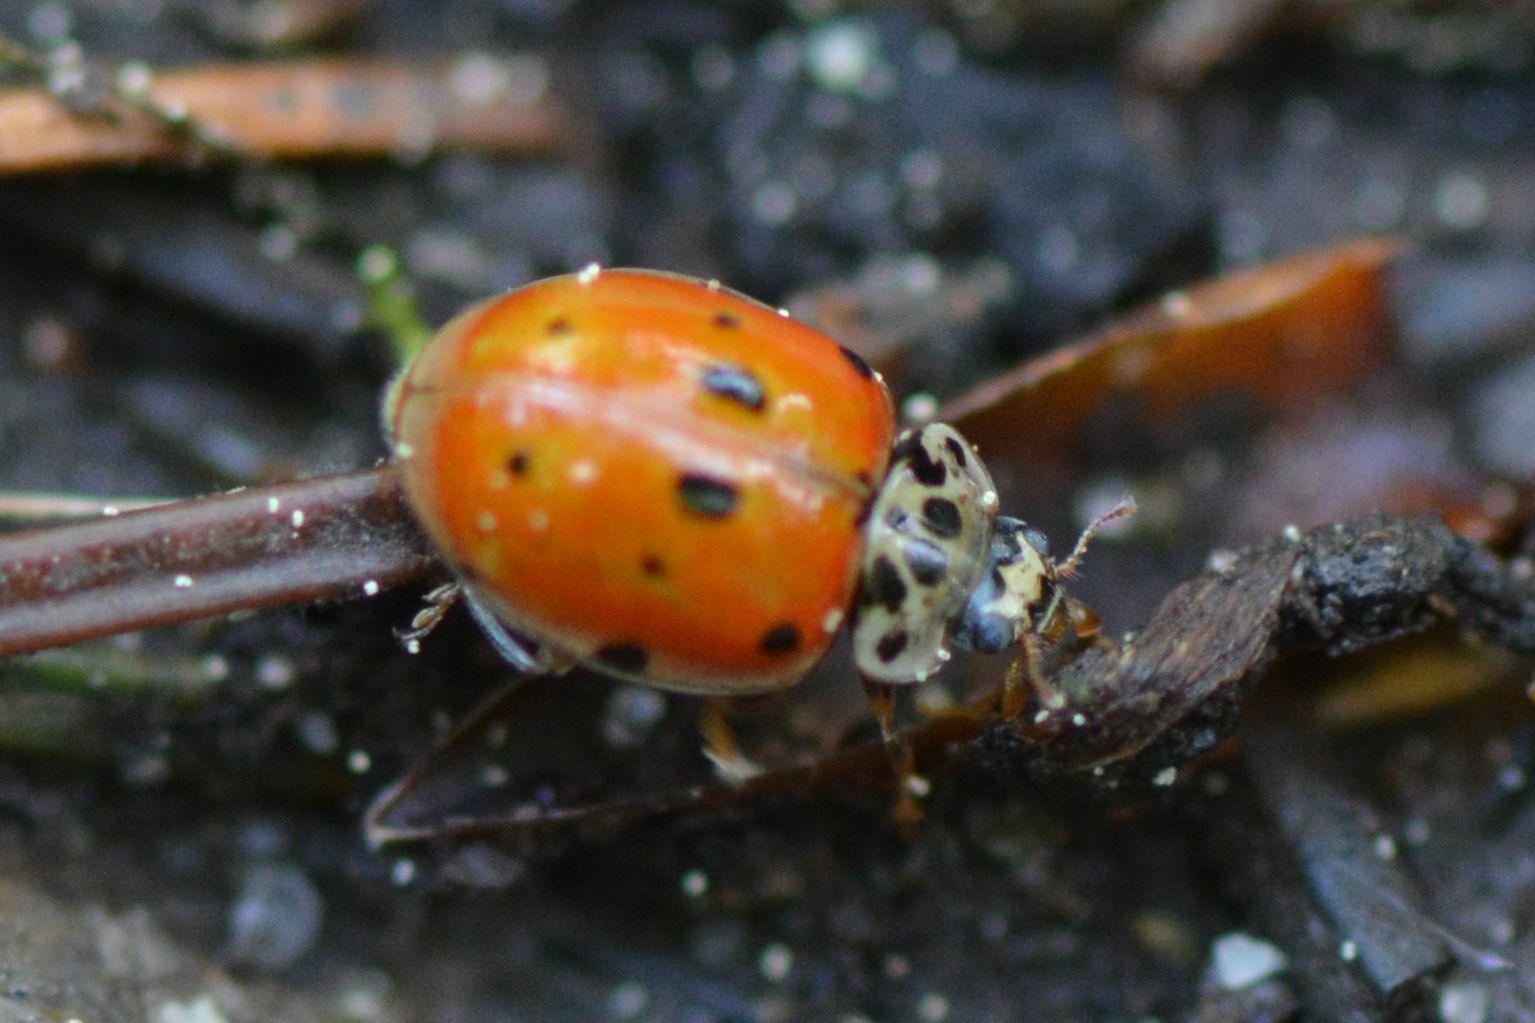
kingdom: Animalia
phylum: Arthropoda
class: Insecta
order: Coleoptera
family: Coccinellidae
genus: Adalia
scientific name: Adalia decempunctata
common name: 10-spot ladybird
